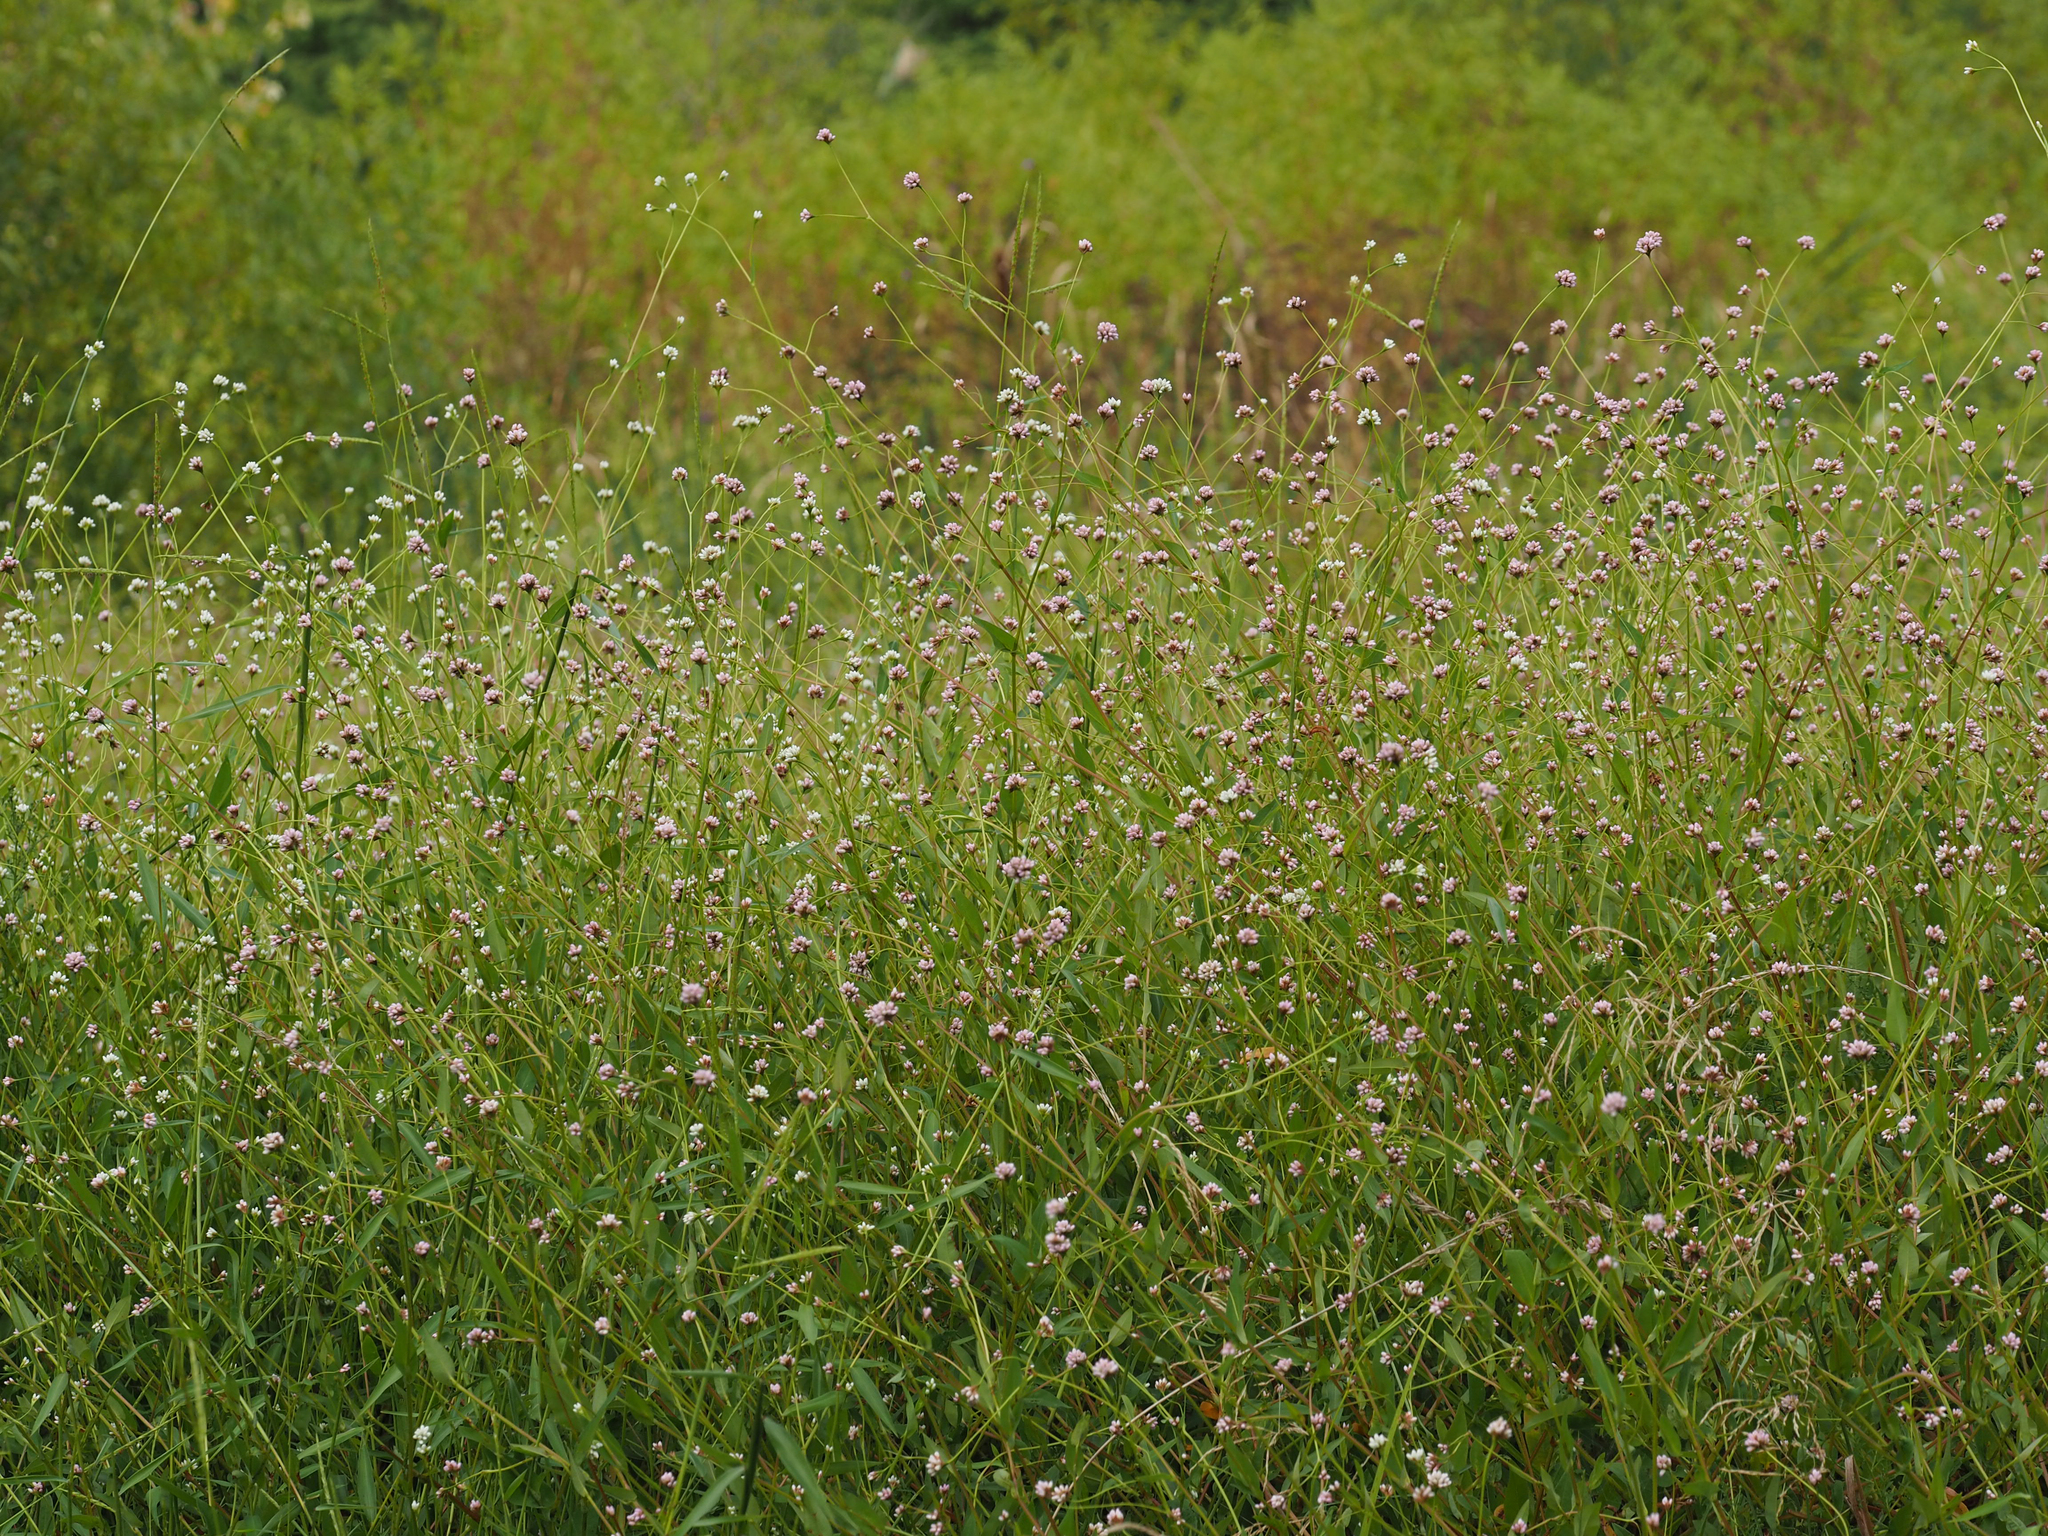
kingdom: Plantae
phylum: Tracheophyta
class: Magnoliopsida
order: Caryophyllales
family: Polygonaceae
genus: Persicaria
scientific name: Persicaria sagittata
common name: American tearthumb
